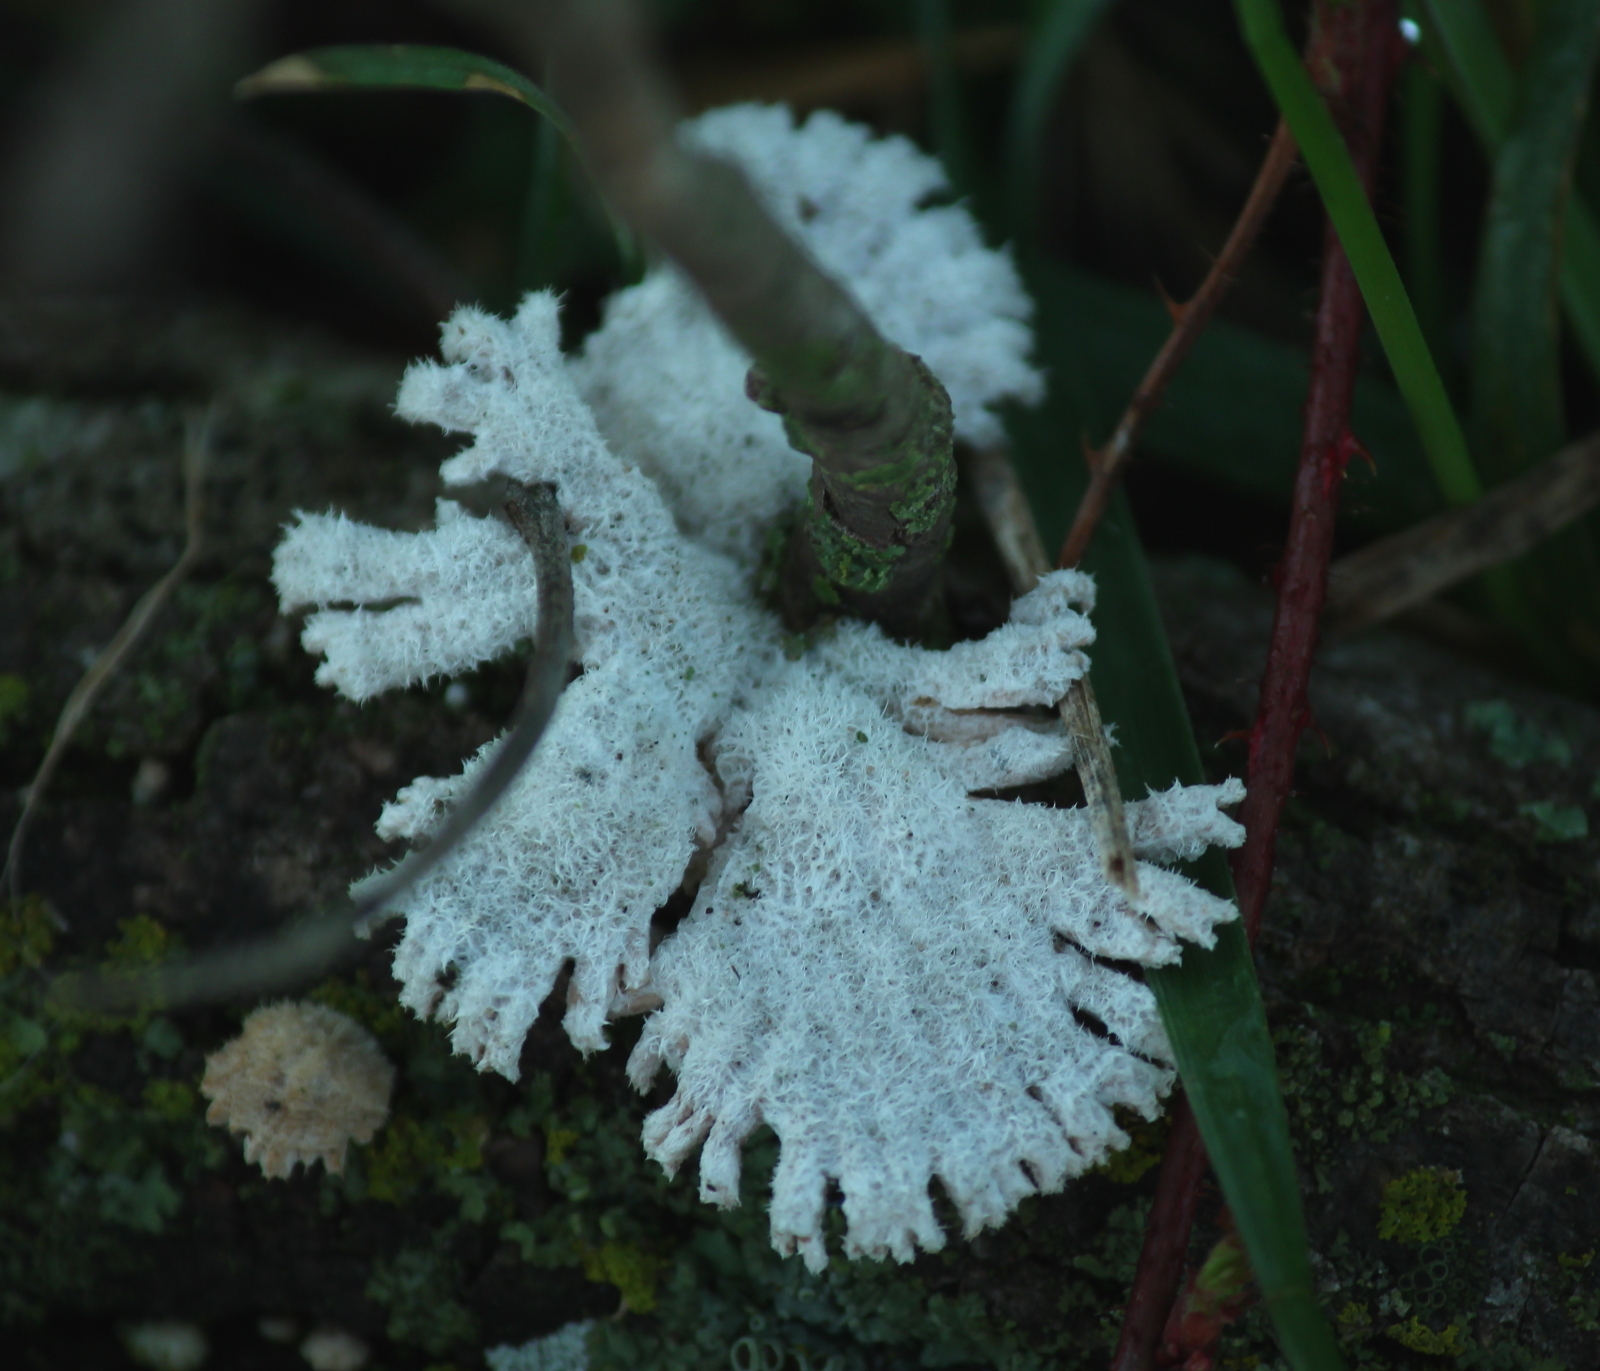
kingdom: Fungi
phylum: Basidiomycota
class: Agaricomycetes
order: Agaricales
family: Schizophyllaceae
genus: Schizophyllum
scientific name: Schizophyllum commune
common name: Common porecrust
